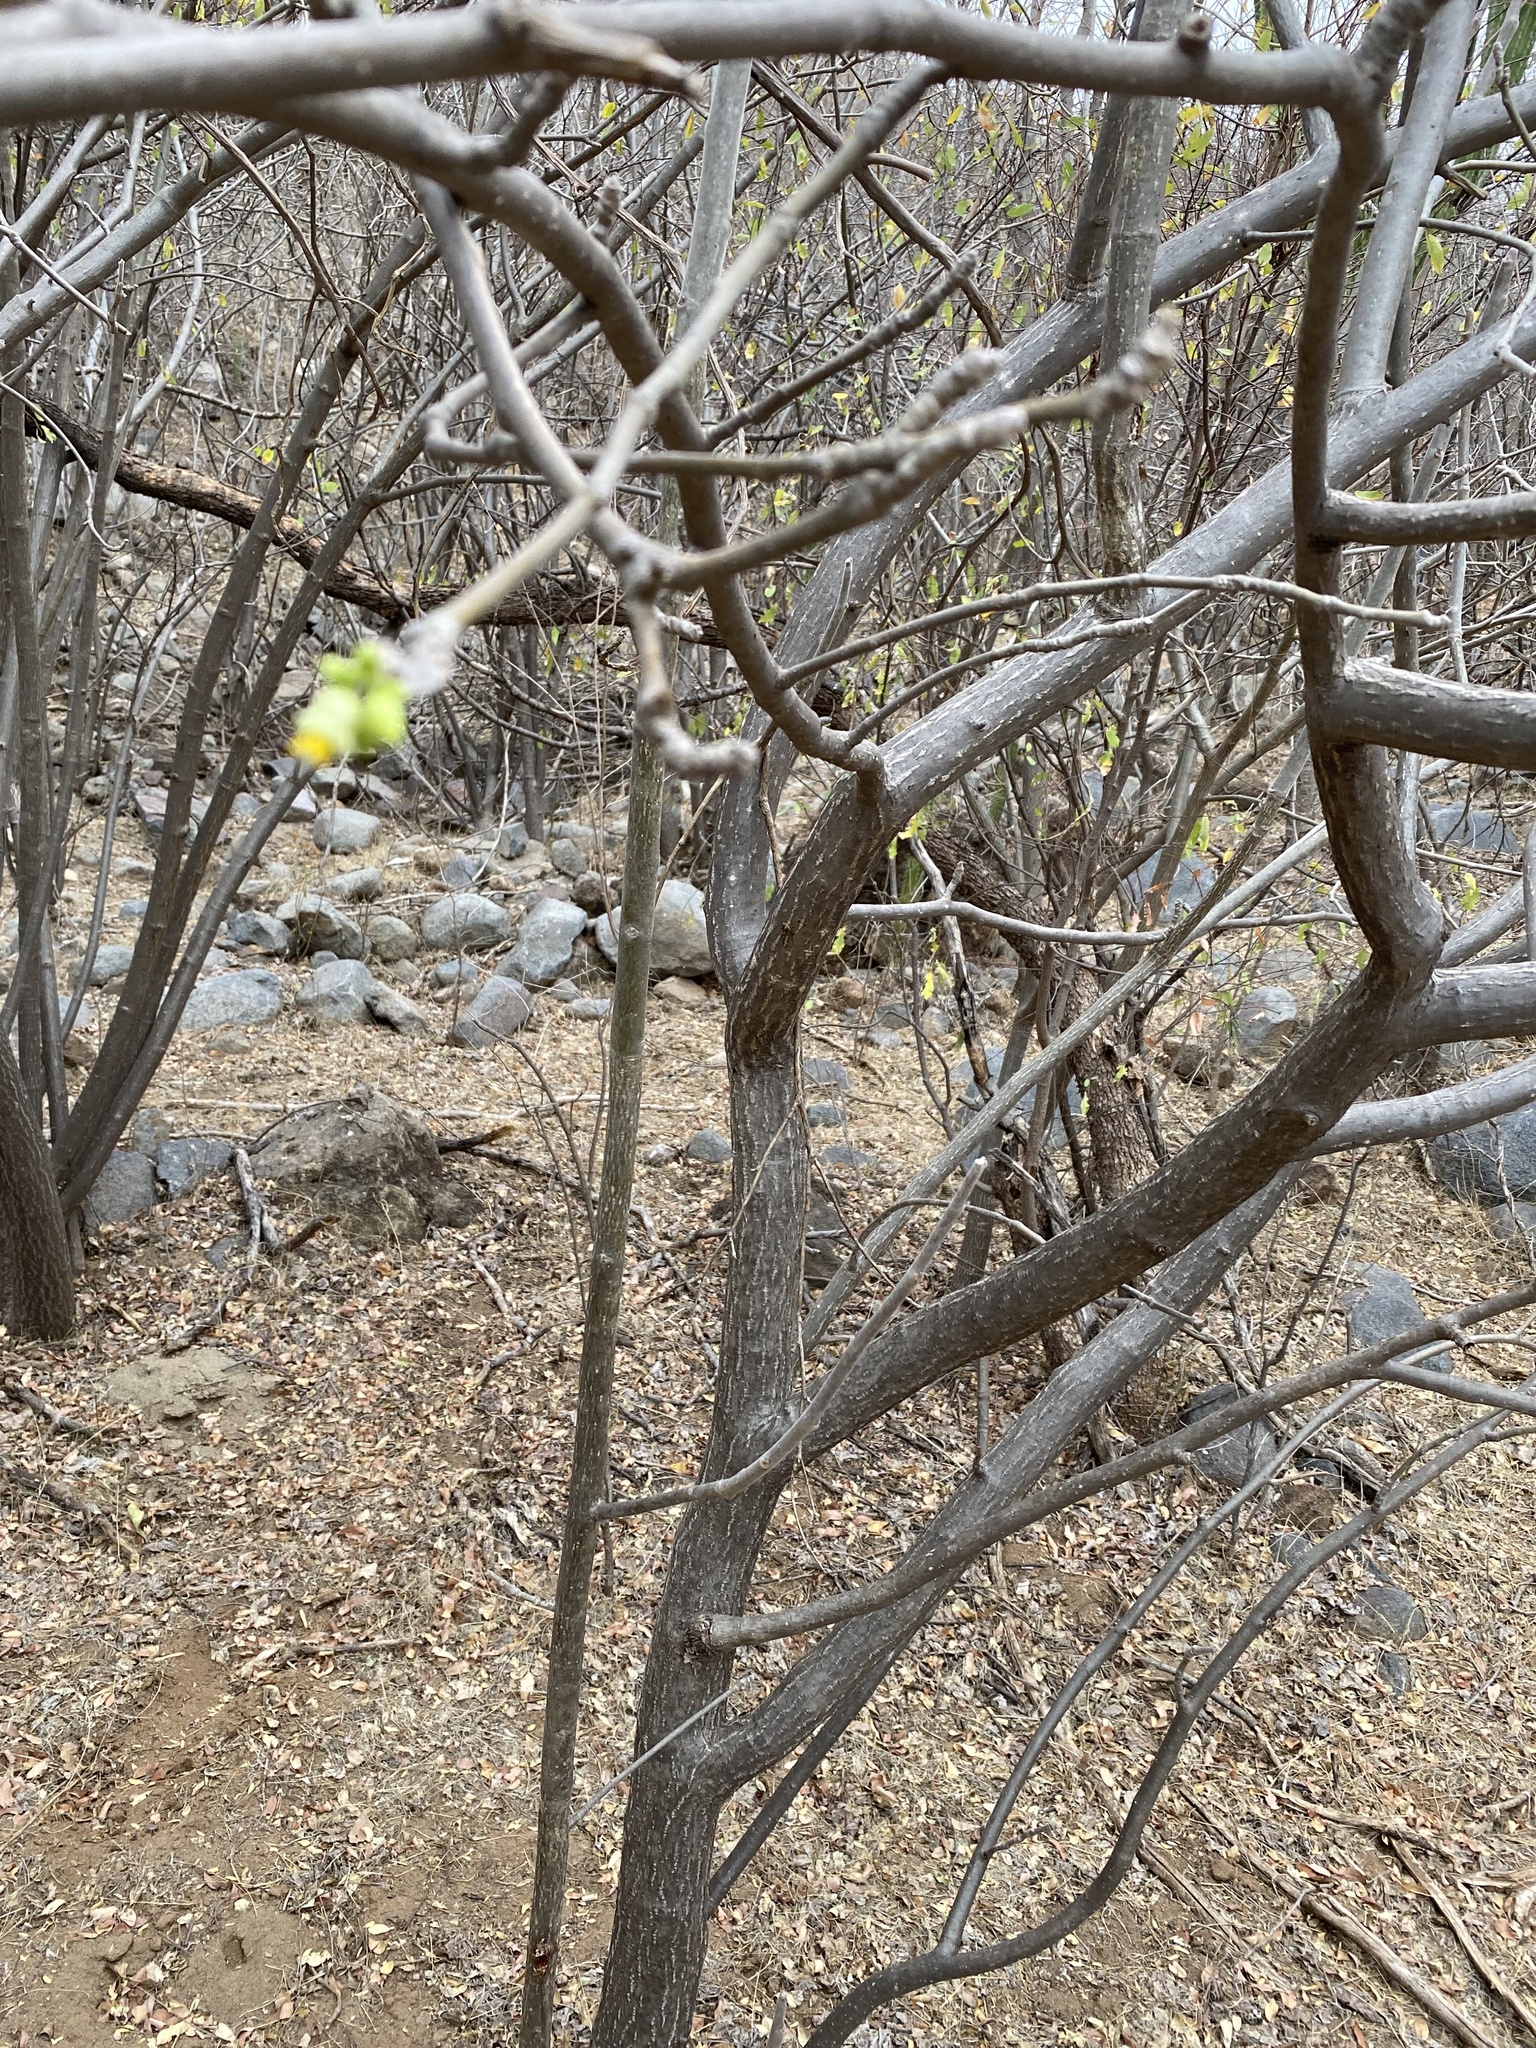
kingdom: Plantae
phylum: Tracheophyta
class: Magnoliopsida
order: Malpighiales
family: Euphorbiaceae
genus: Jatropha
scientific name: Jatropha malacophylla
